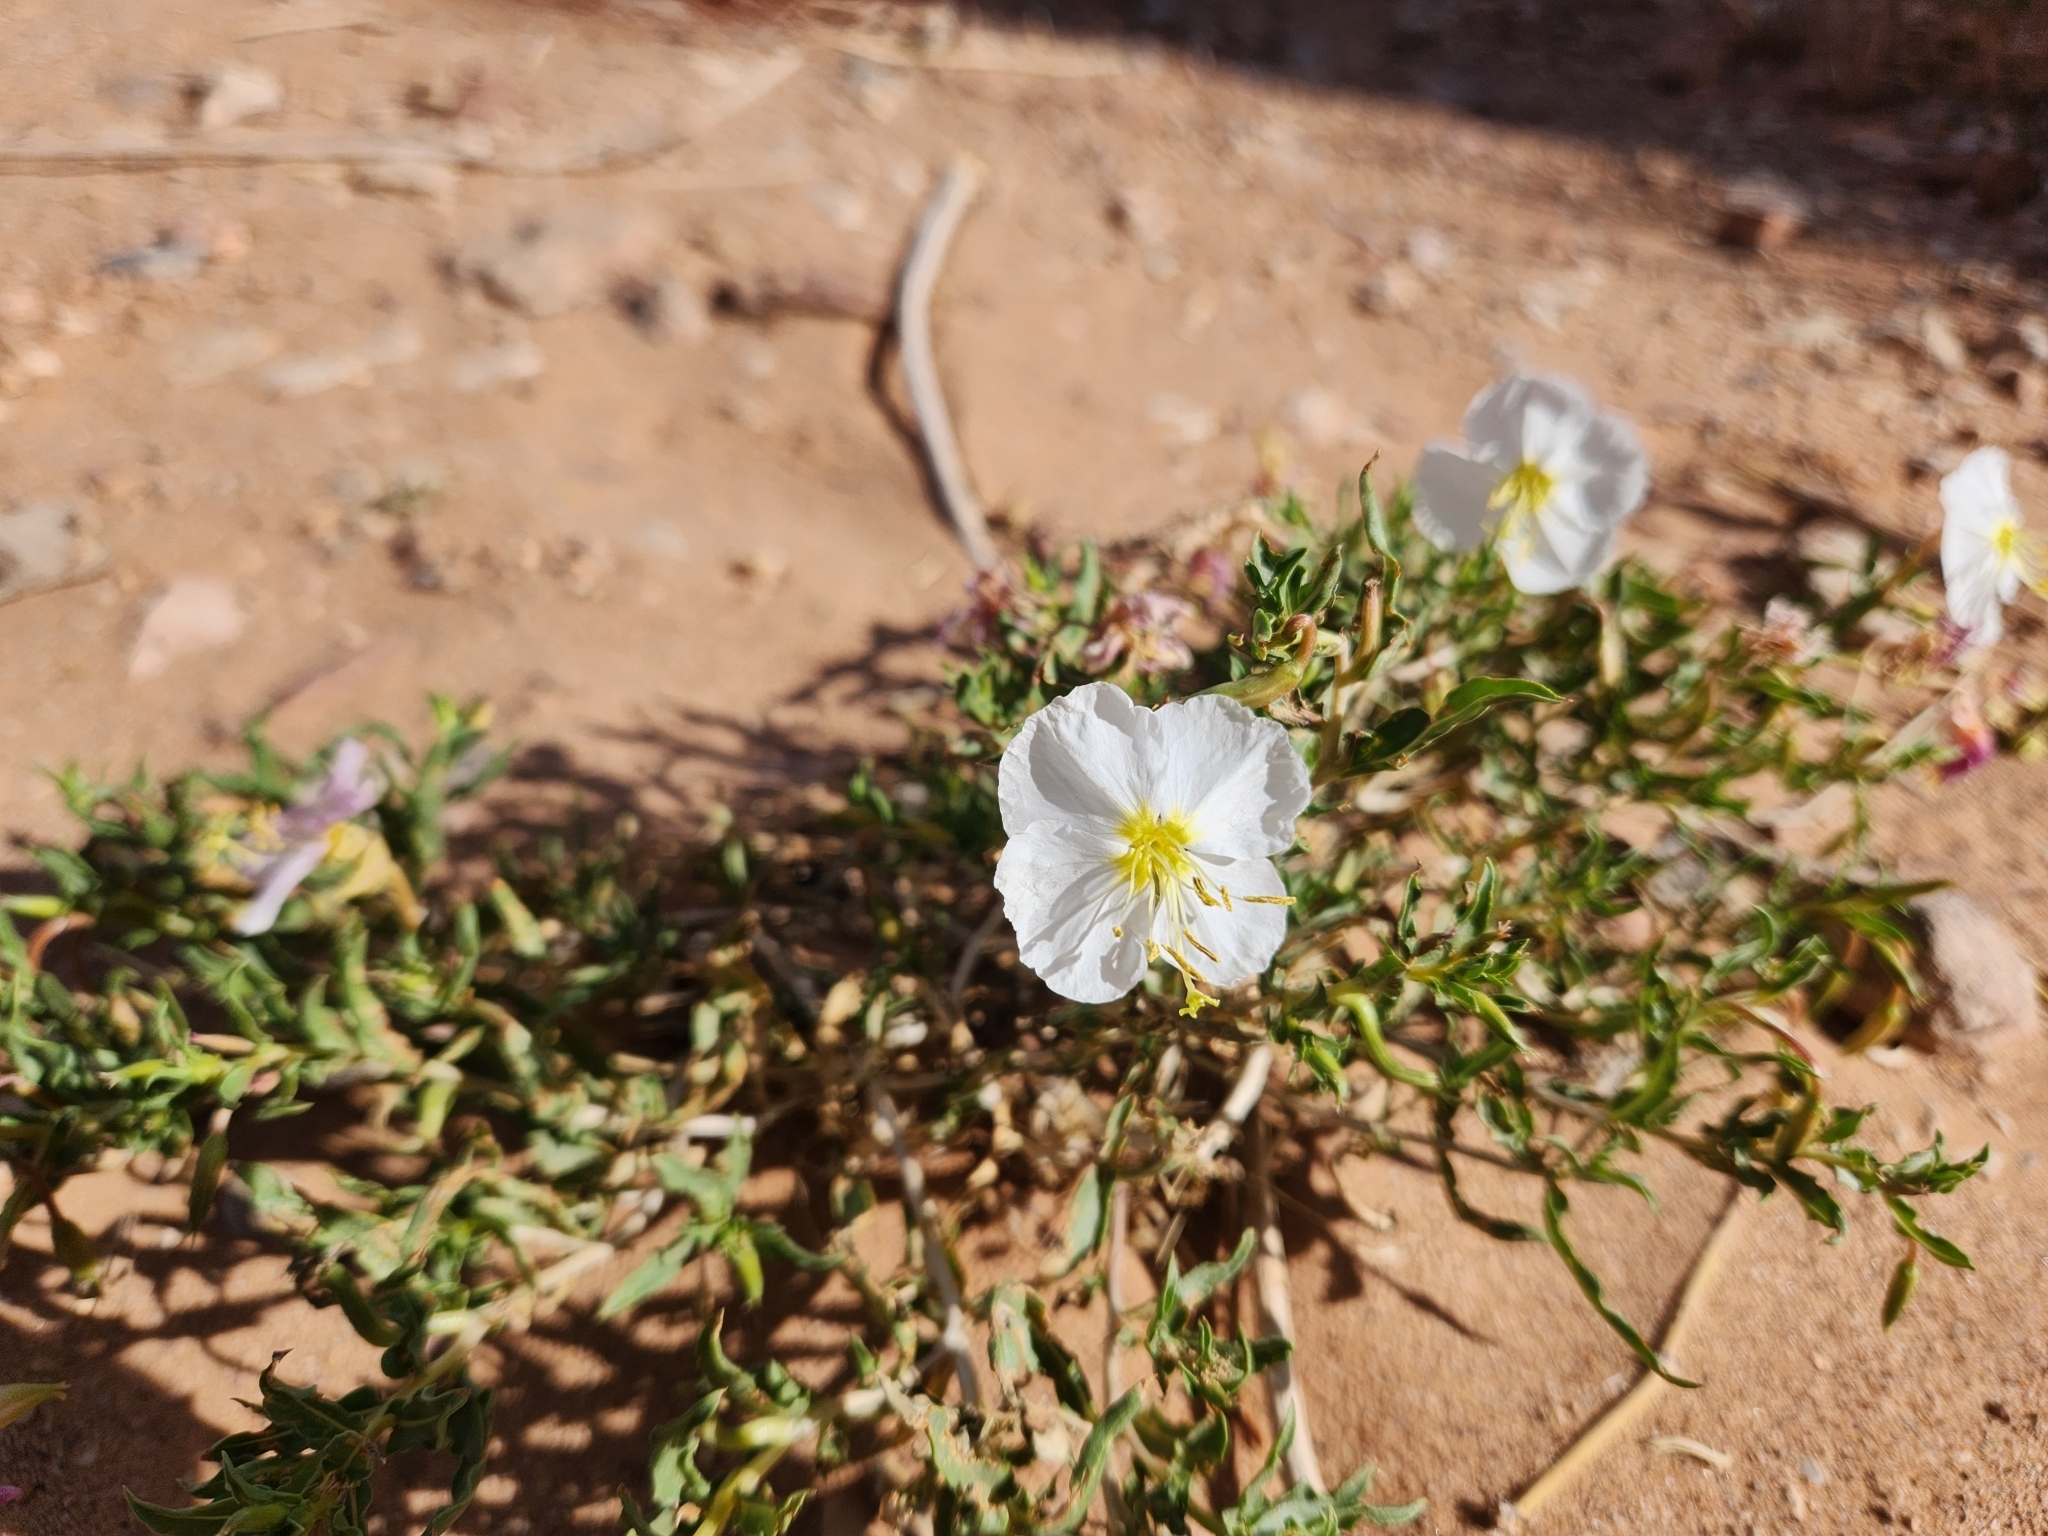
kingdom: Plantae
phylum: Tracheophyta
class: Magnoliopsida
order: Myrtales
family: Onagraceae
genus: Oenothera
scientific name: Oenothera pallida
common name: Pale evening-primrose
